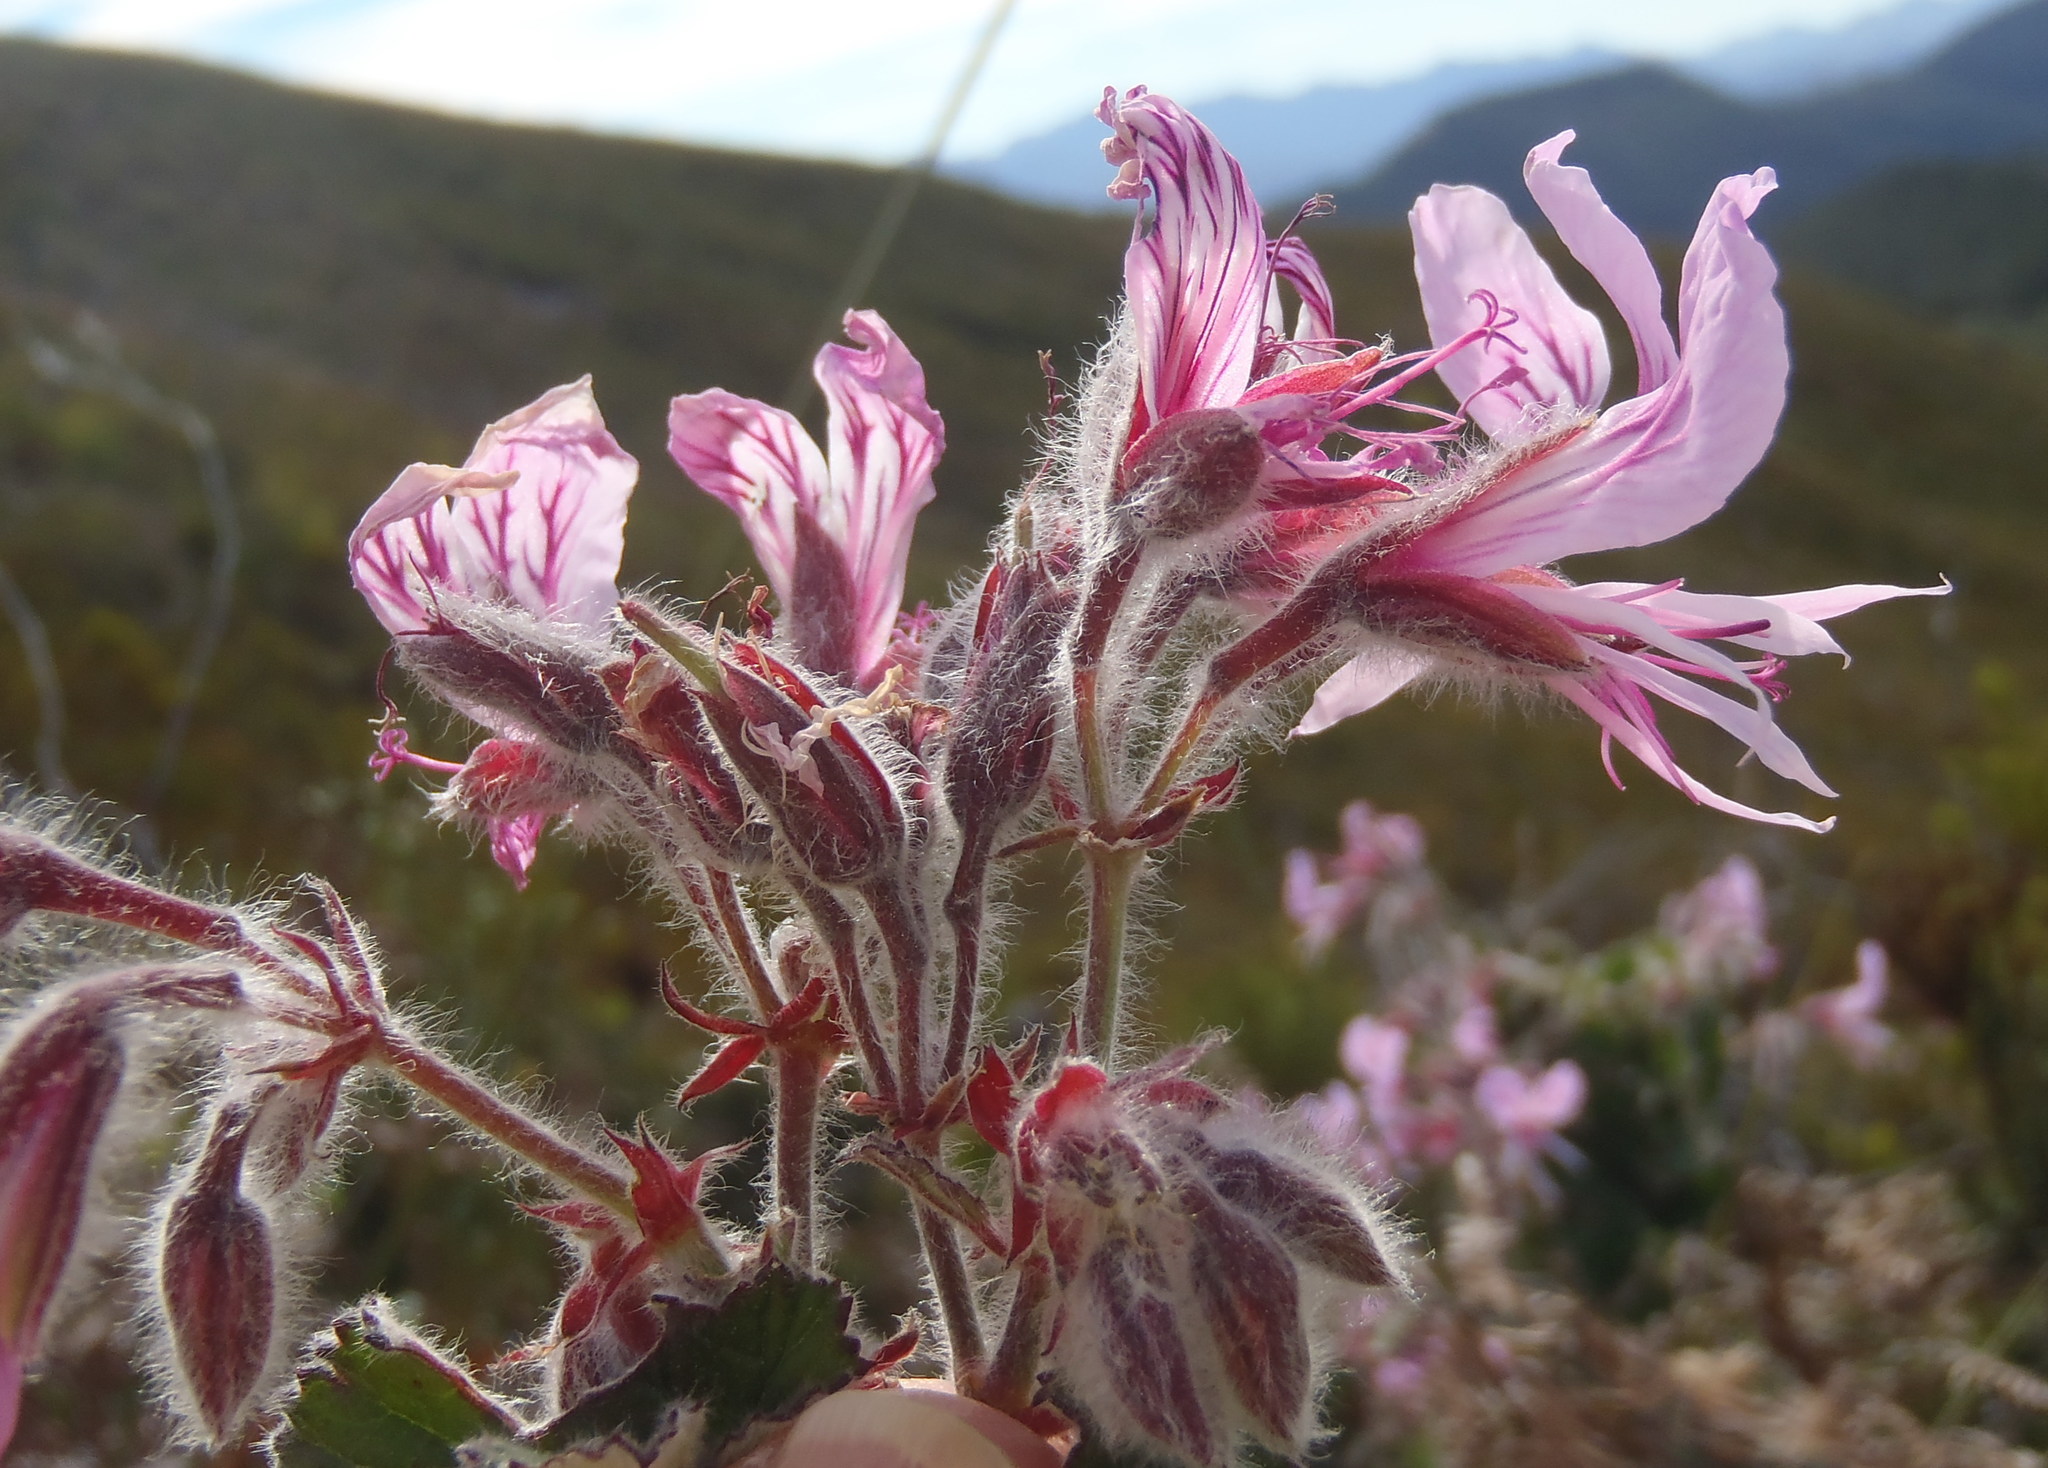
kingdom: Plantae
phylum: Tracheophyta
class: Magnoliopsida
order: Geraniales
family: Geraniaceae
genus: Pelargonium
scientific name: Pelargonium cordifolium
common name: Heart-leaf pelargonium
